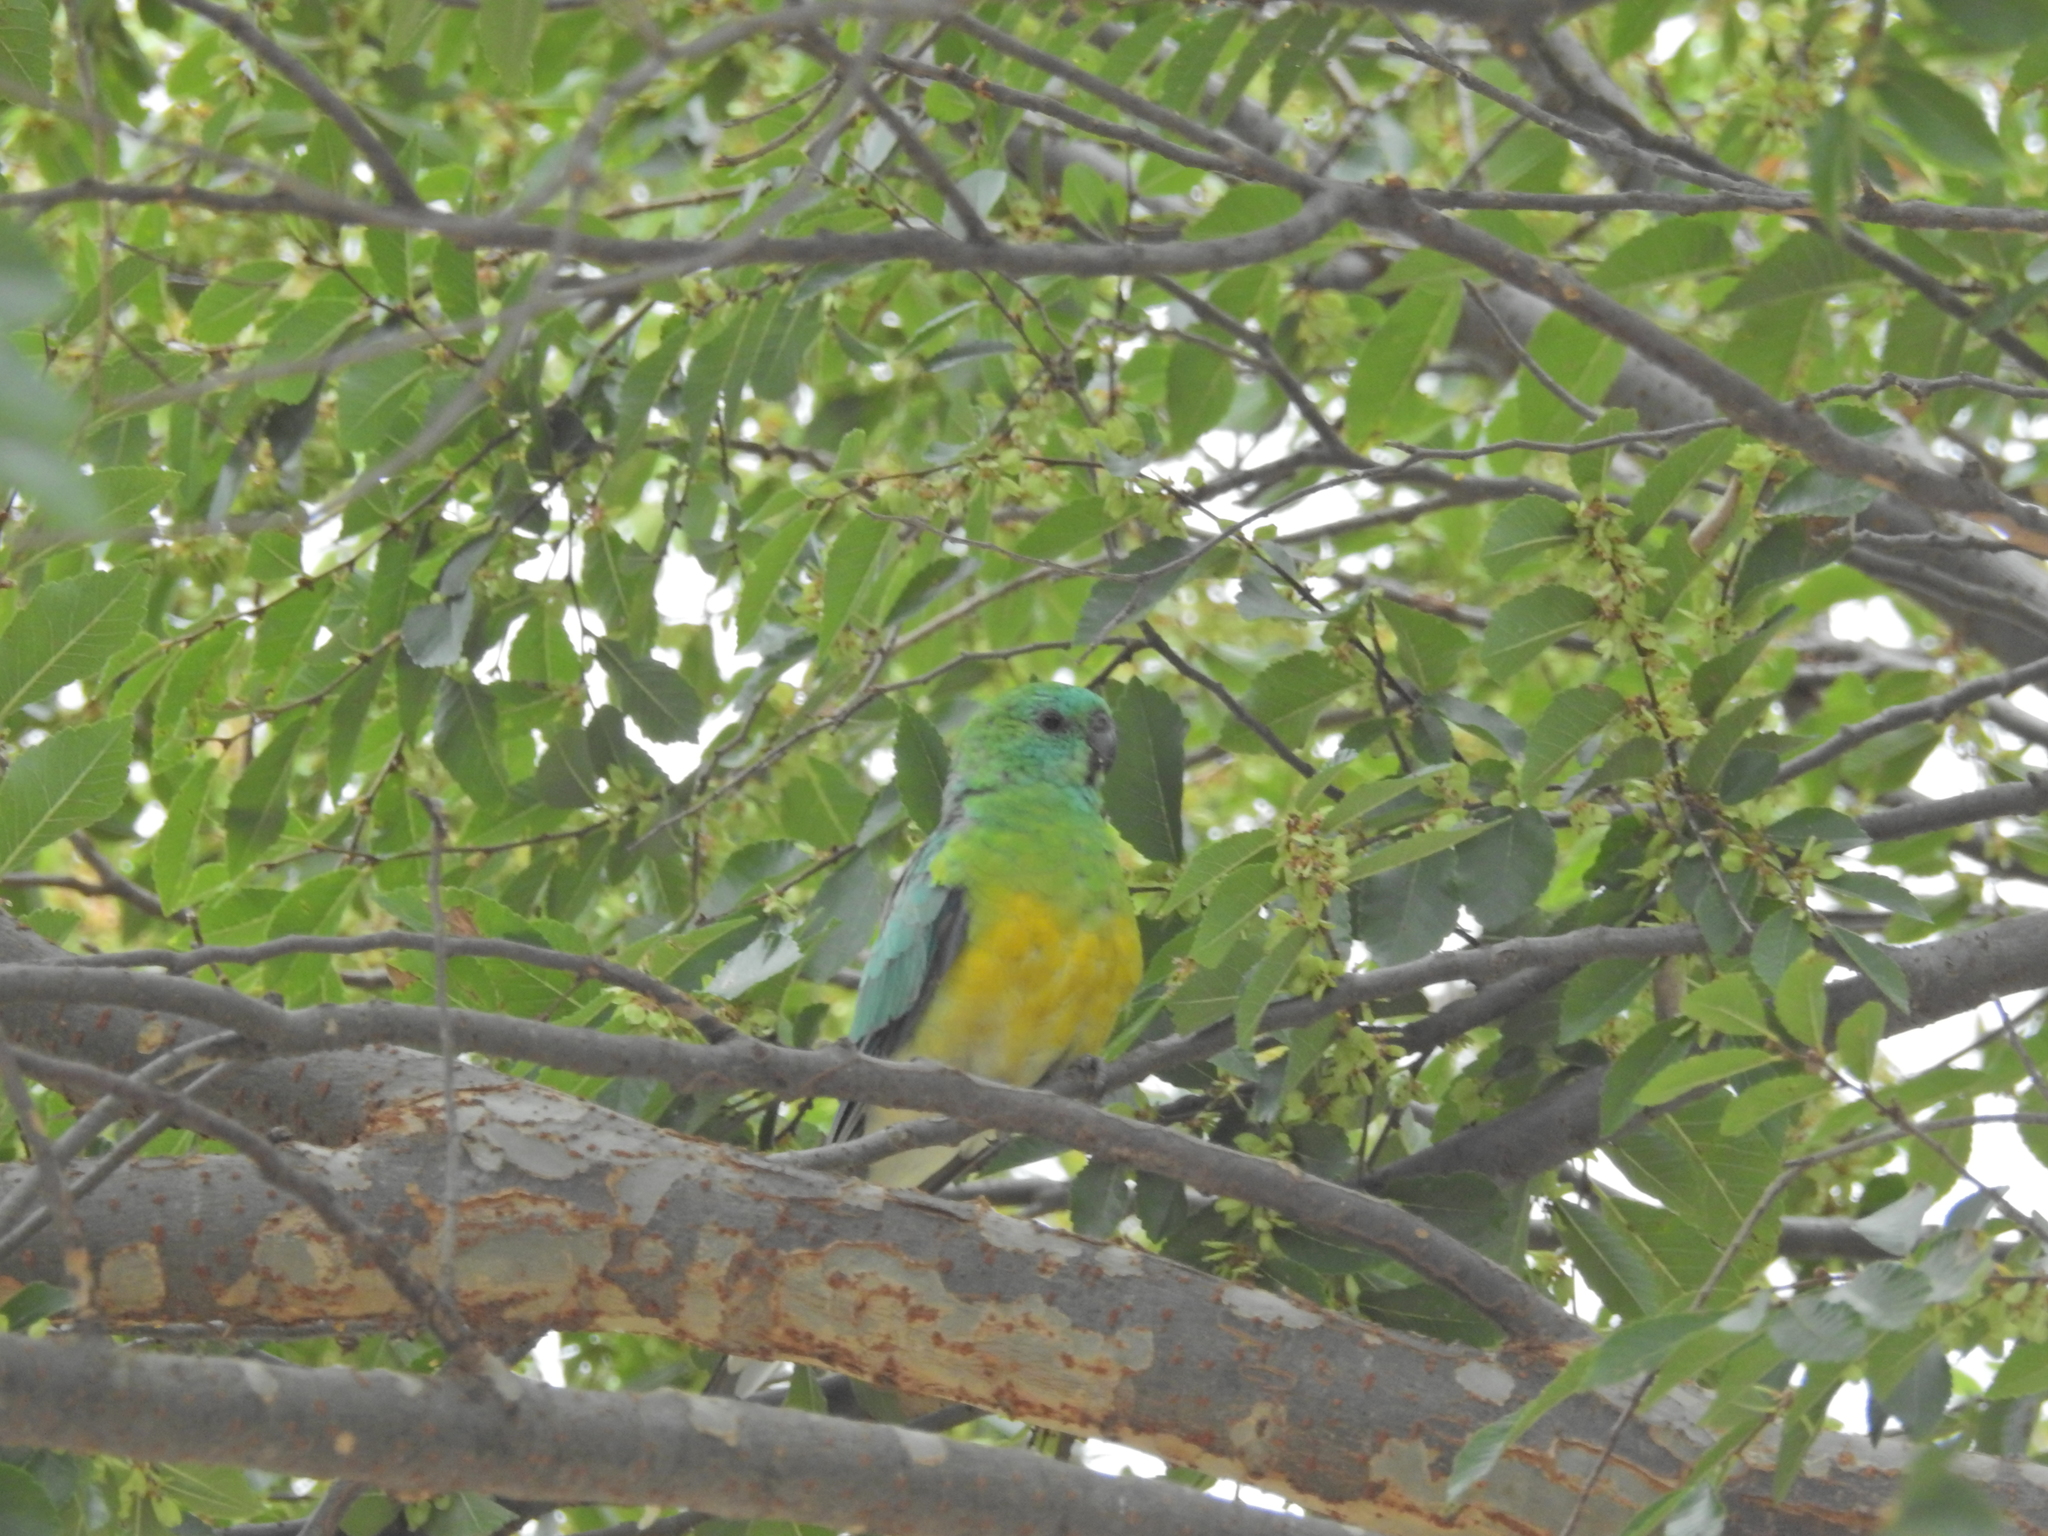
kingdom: Animalia
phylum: Chordata
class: Aves
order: Psittaciformes
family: Psittacidae
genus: Psephotus
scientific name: Psephotus haematonotus
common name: Red-rumped parrot
